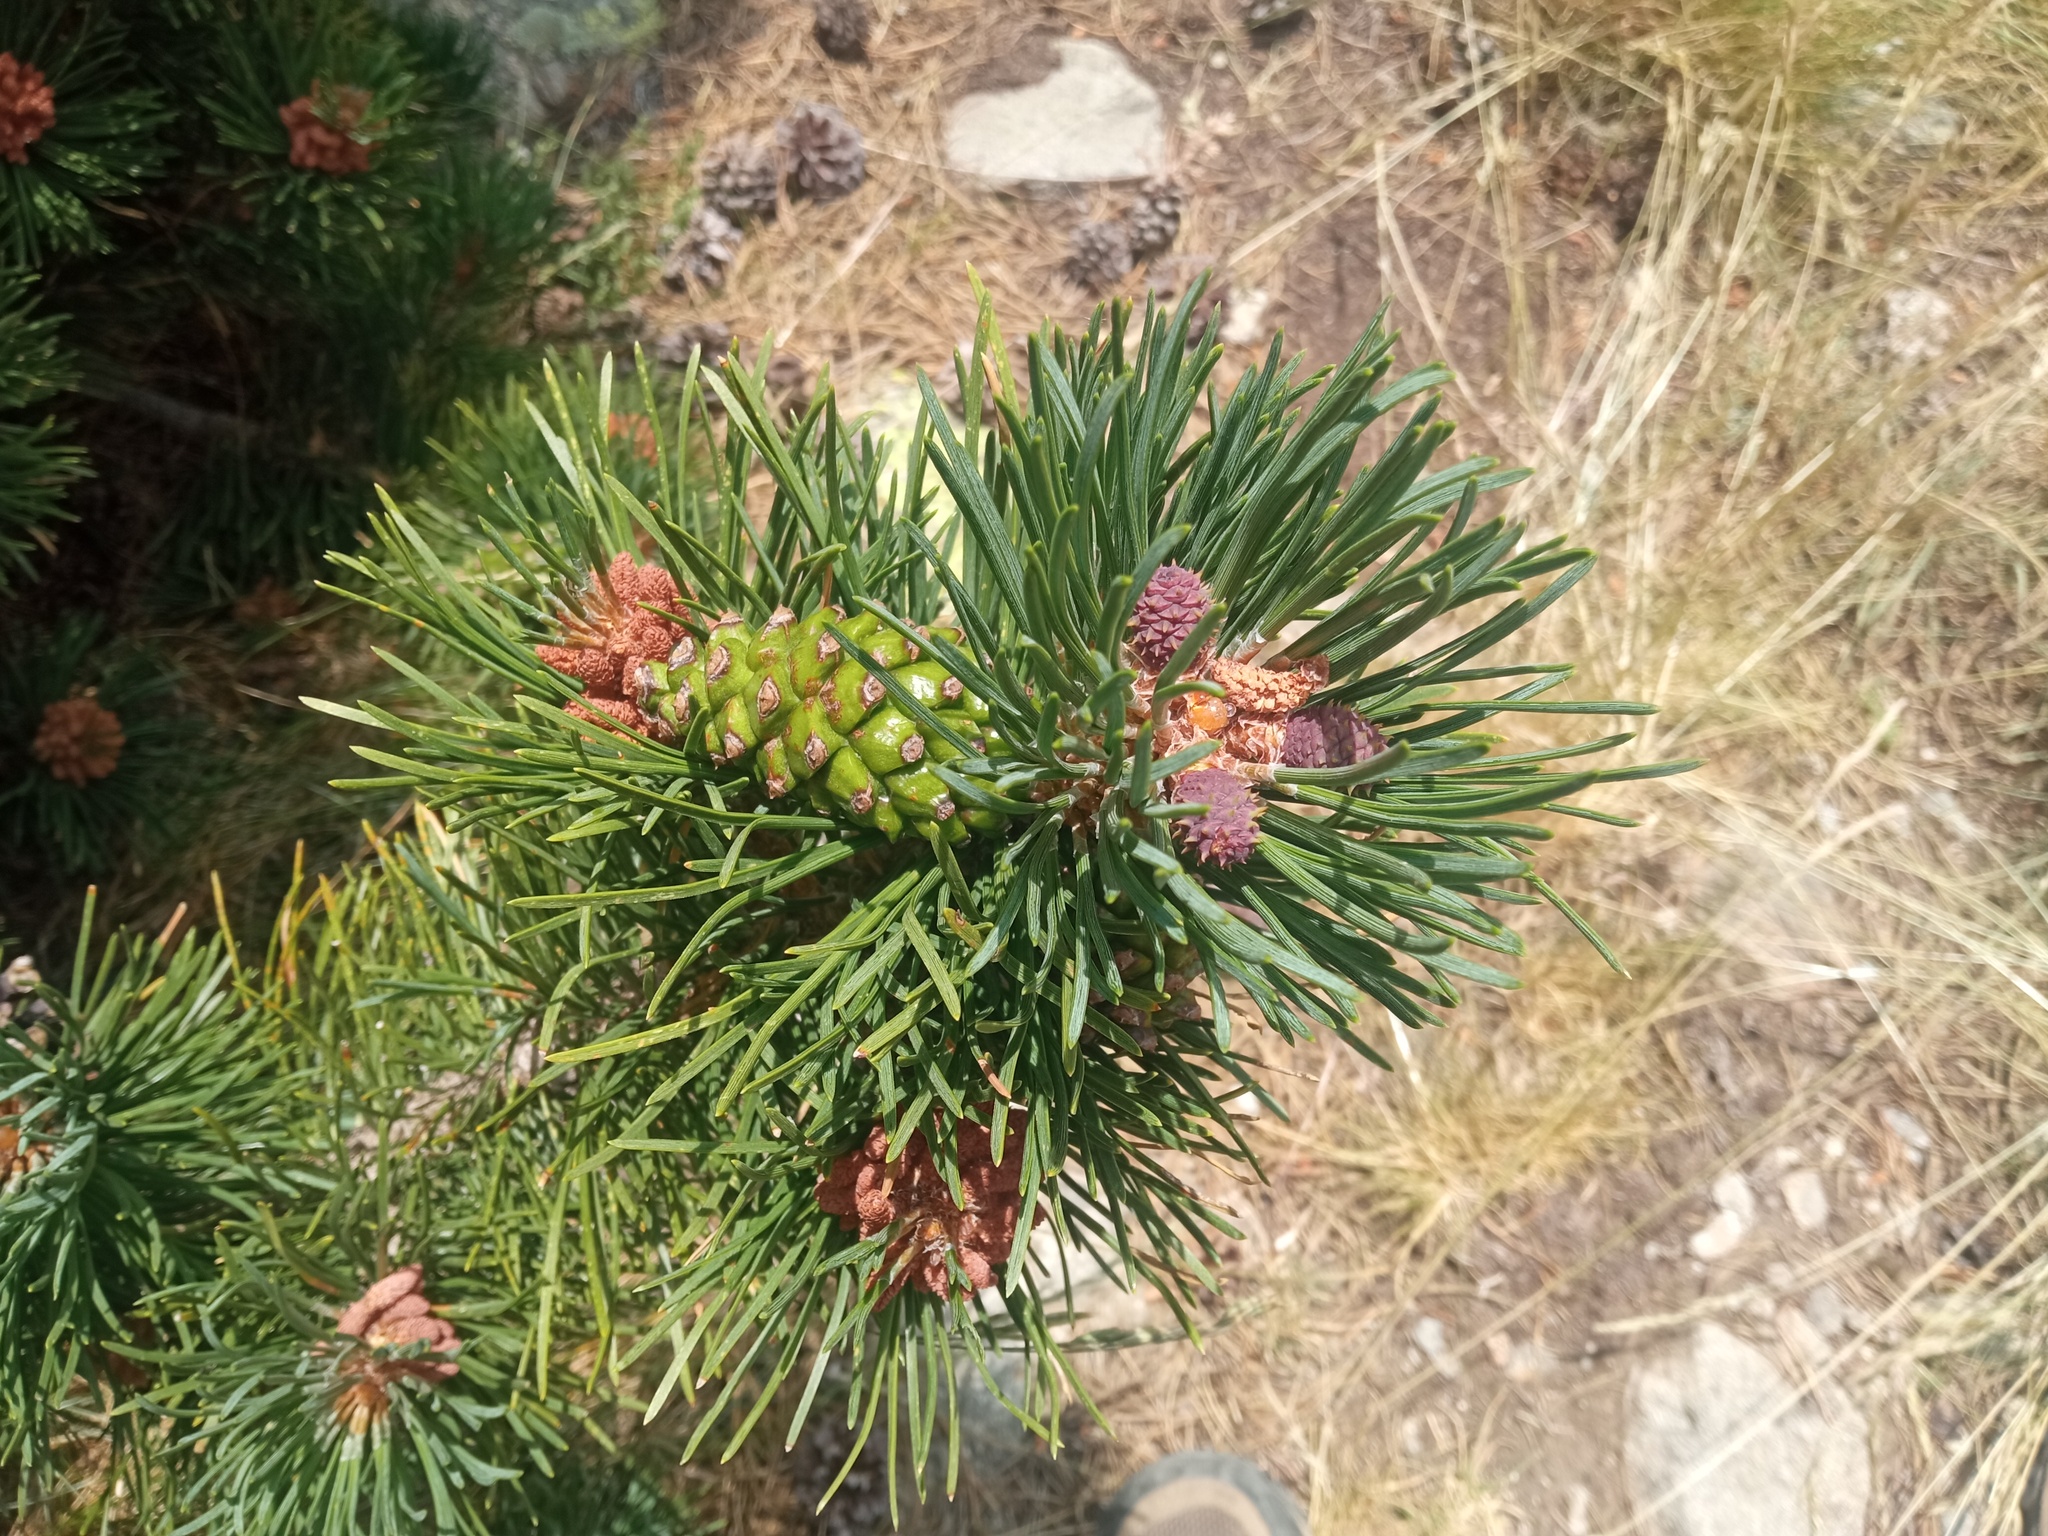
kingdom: Plantae
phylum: Tracheophyta
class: Pinopsida
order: Pinales
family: Pinaceae
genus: Pinus
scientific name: Pinus uncinata
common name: Mountain pine
